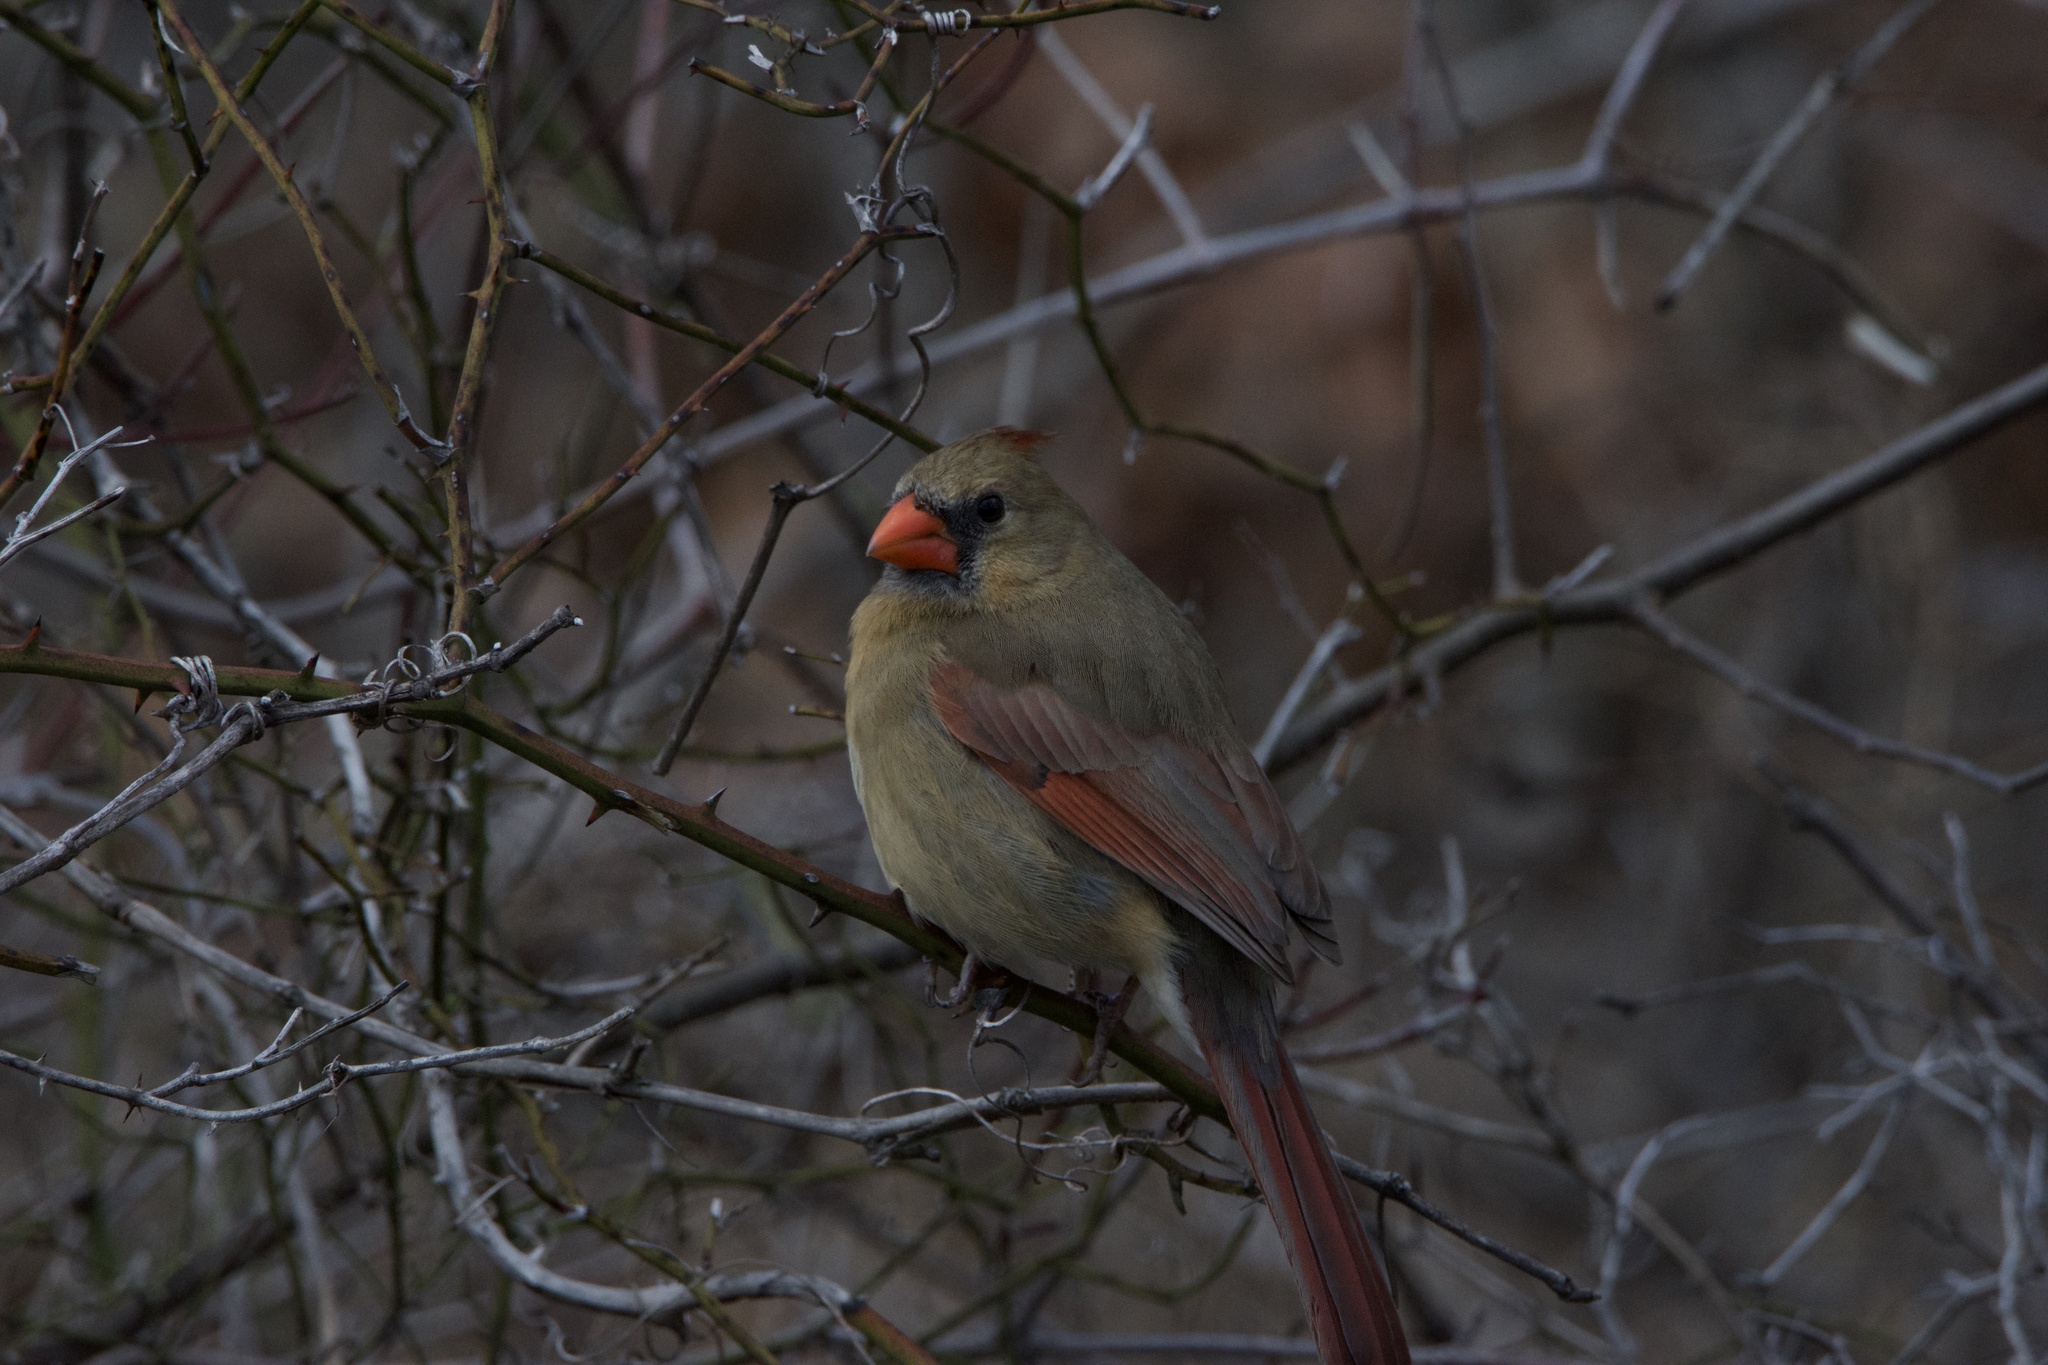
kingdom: Animalia
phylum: Chordata
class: Aves
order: Passeriformes
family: Cardinalidae
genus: Cardinalis
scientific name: Cardinalis cardinalis
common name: Northern cardinal
